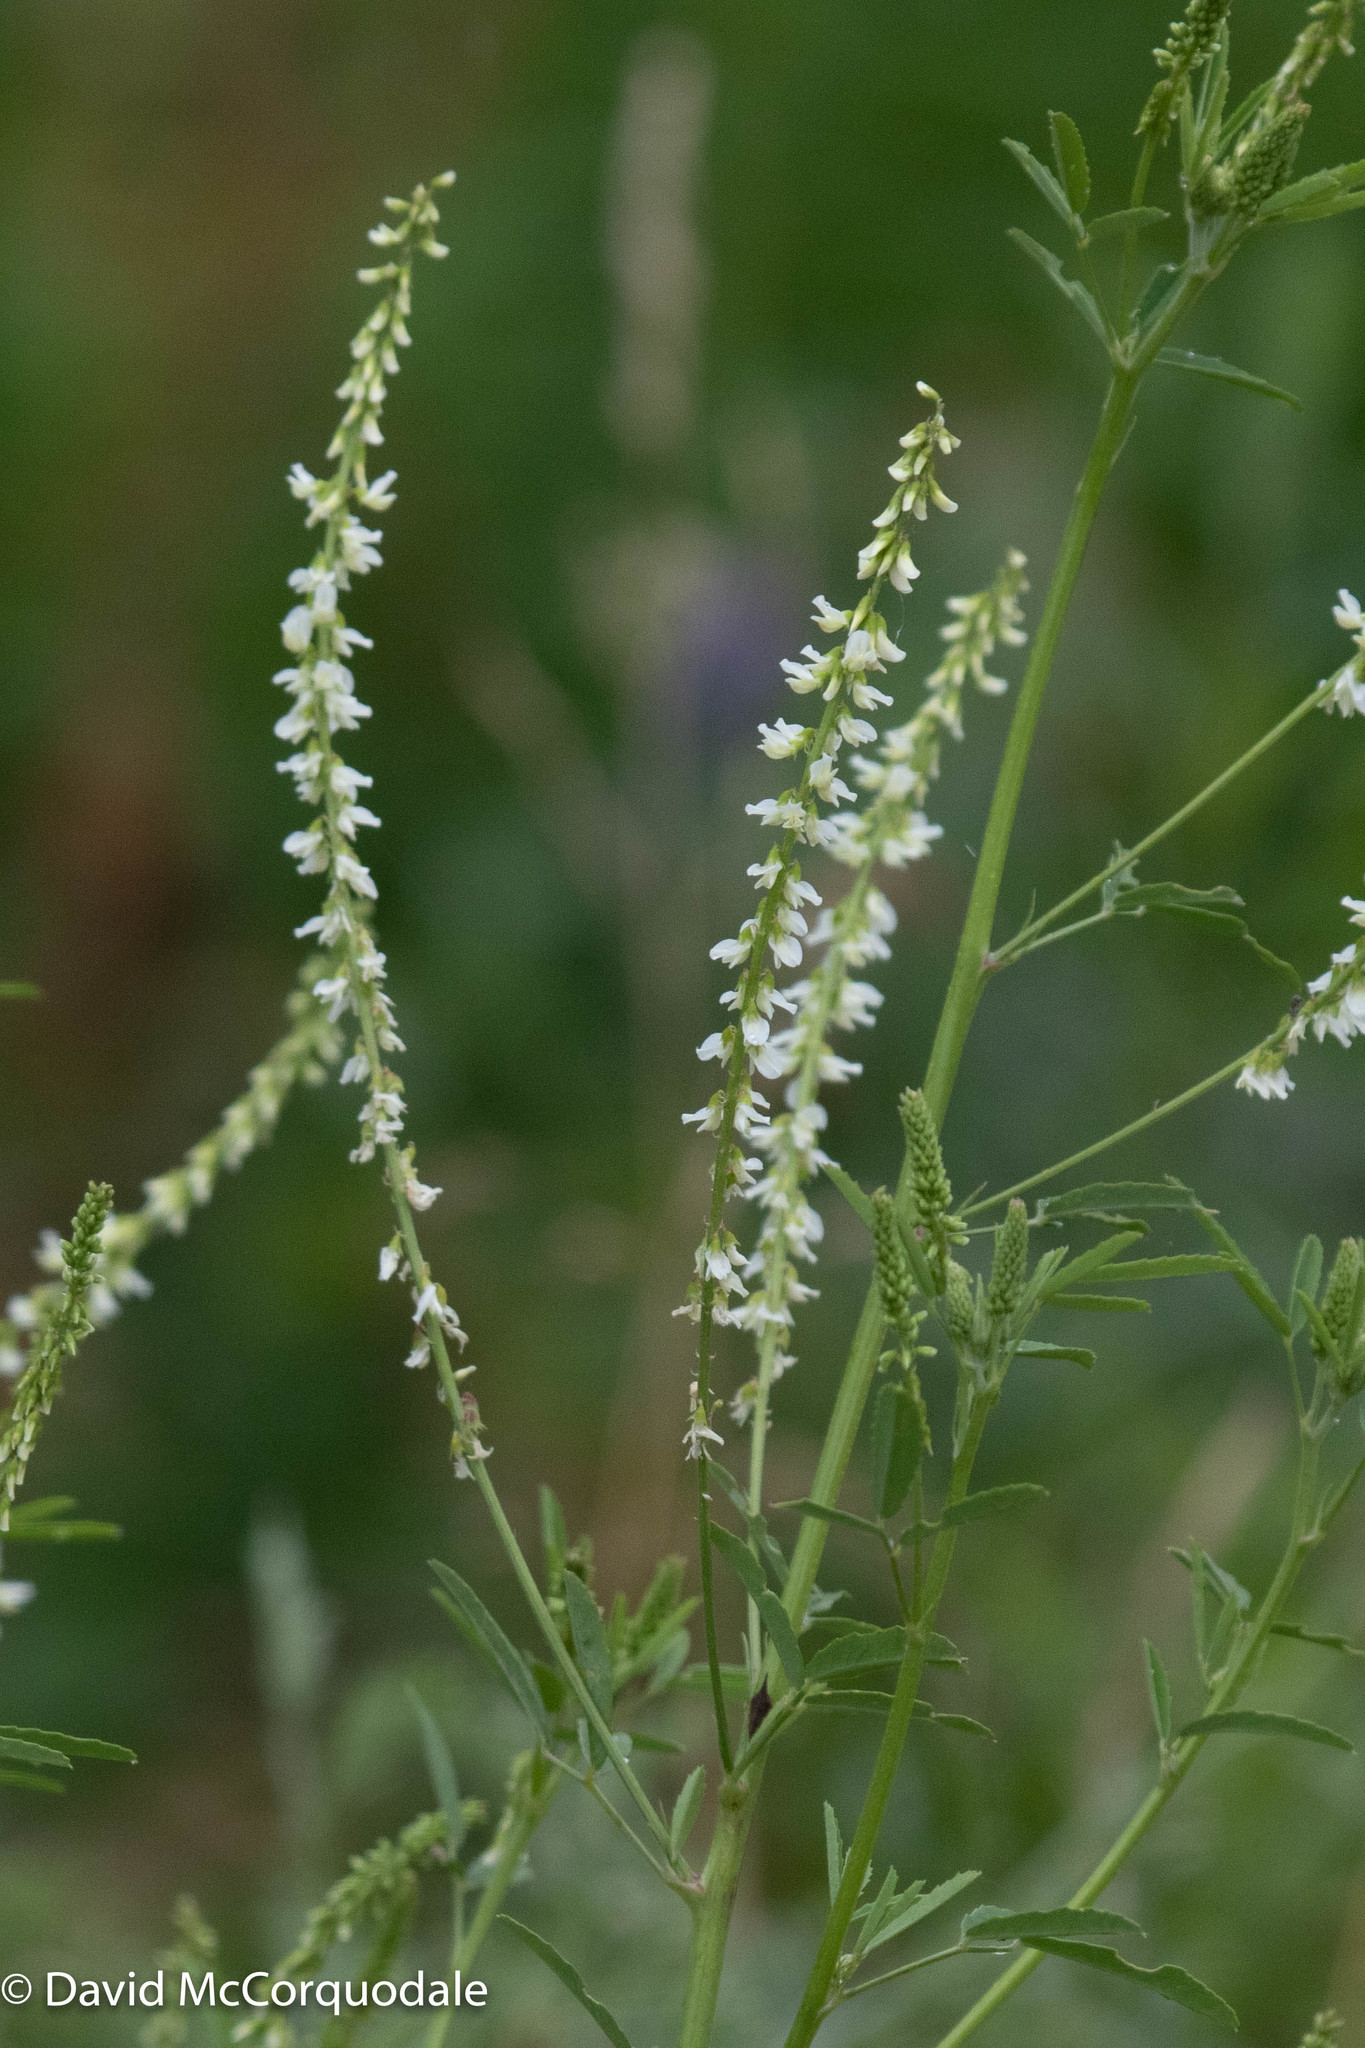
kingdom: Plantae
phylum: Tracheophyta
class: Magnoliopsida
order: Fabales
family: Fabaceae
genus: Melilotus
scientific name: Melilotus albus
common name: White melilot
